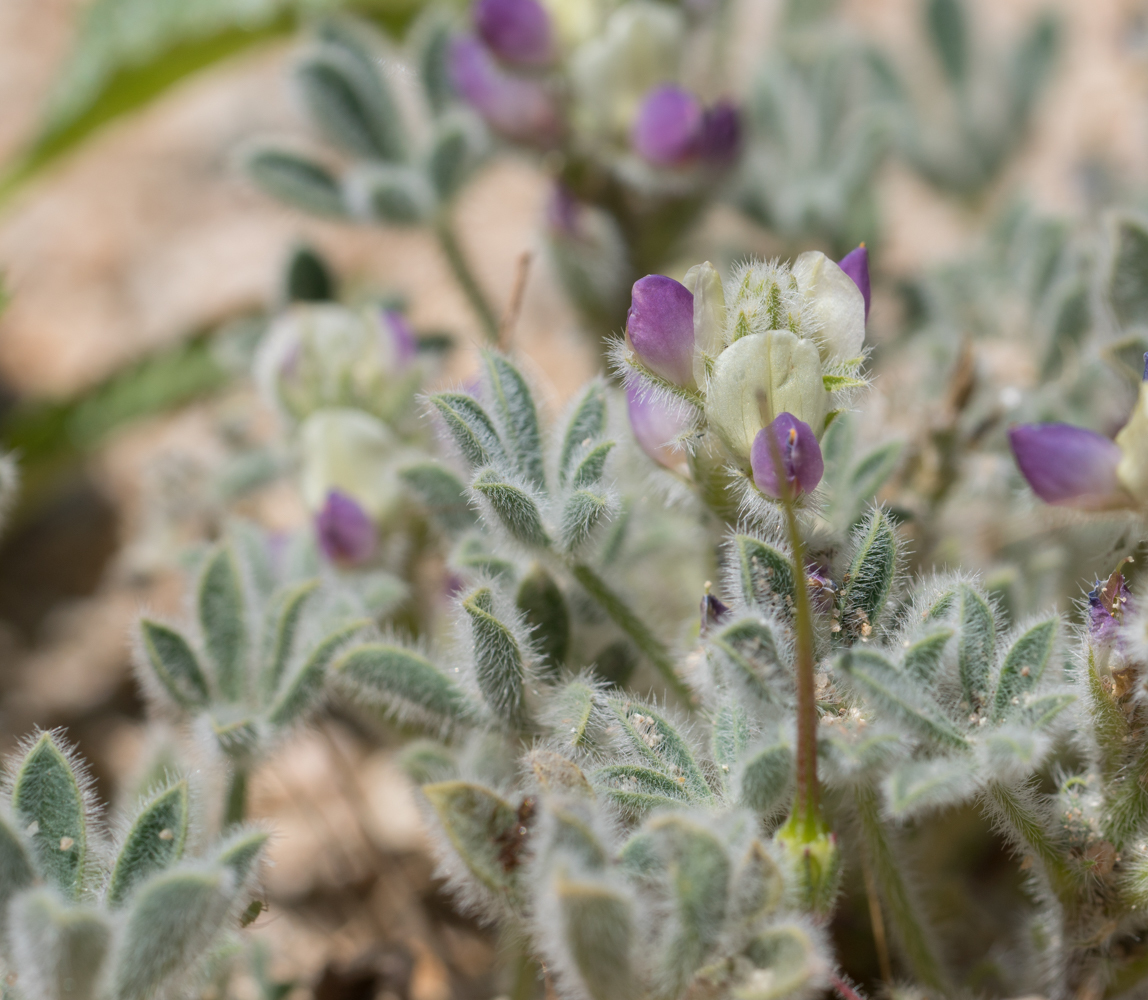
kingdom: Plantae
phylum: Tracheophyta
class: Magnoliopsida
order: Fabales
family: Fabaceae
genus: Lupinus
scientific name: Lupinus concinnus
